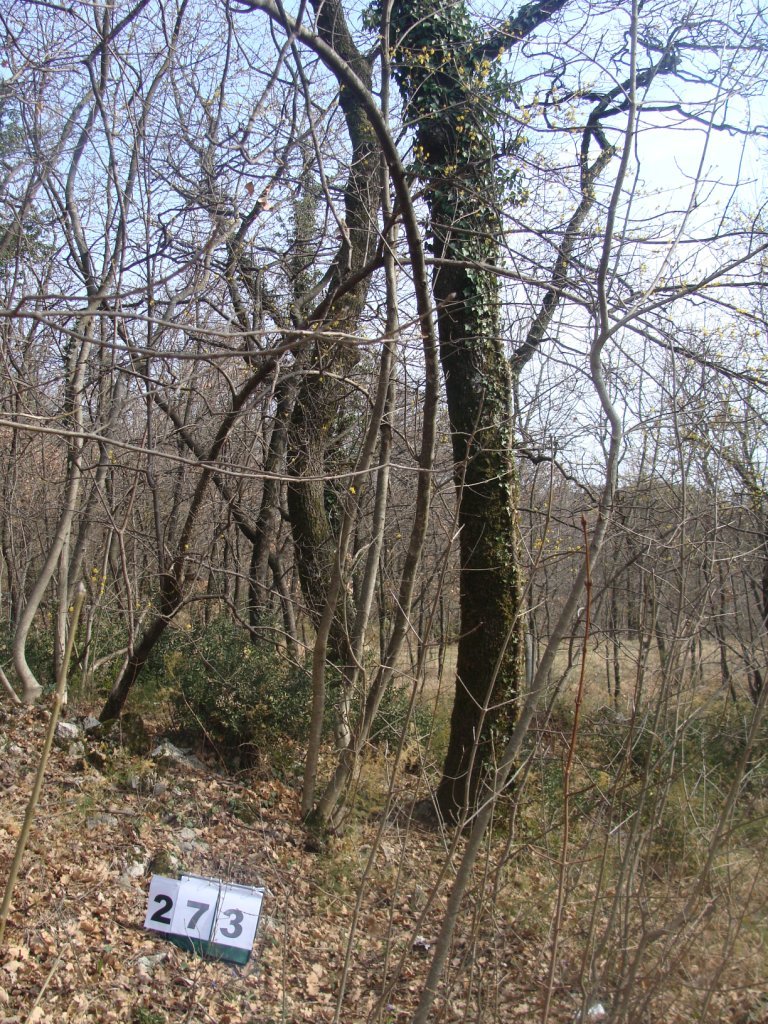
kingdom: Plantae
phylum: Tracheophyta
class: Magnoliopsida
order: Cornales
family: Cornaceae
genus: Cornus
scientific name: Cornus mas
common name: Cornelian-cherry
